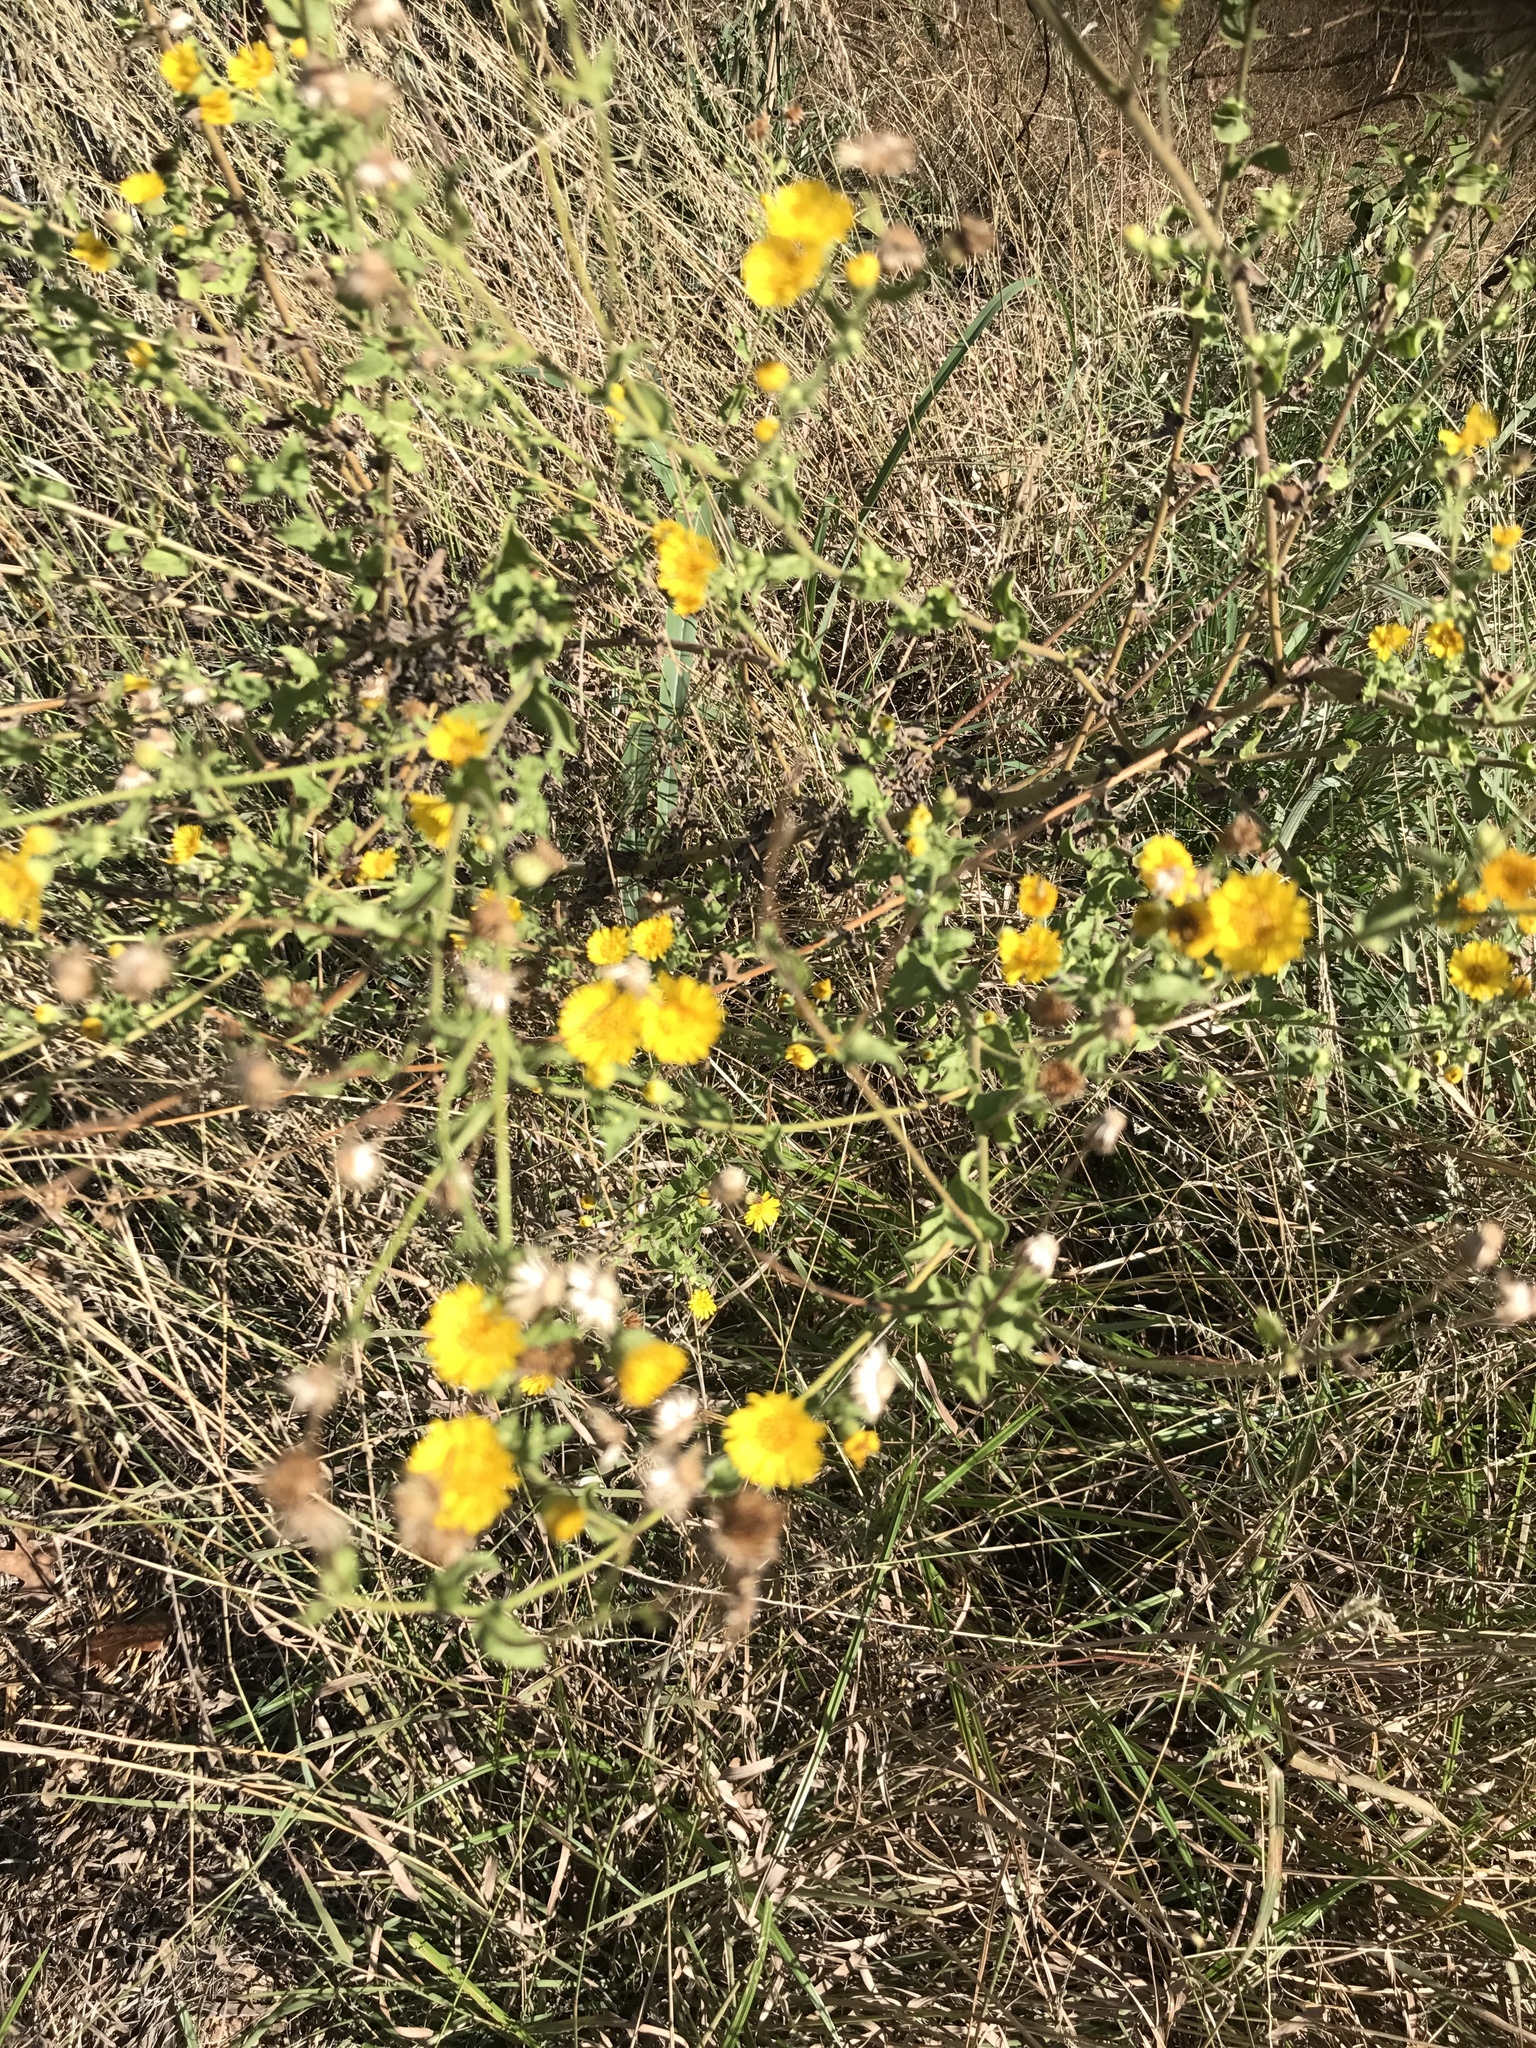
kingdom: Plantae
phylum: Tracheophyta
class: Magnoliopsida
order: Asterales
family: Asteraceae
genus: Heterotheca
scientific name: Heterotheca subaxillaris
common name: Camphorweed
